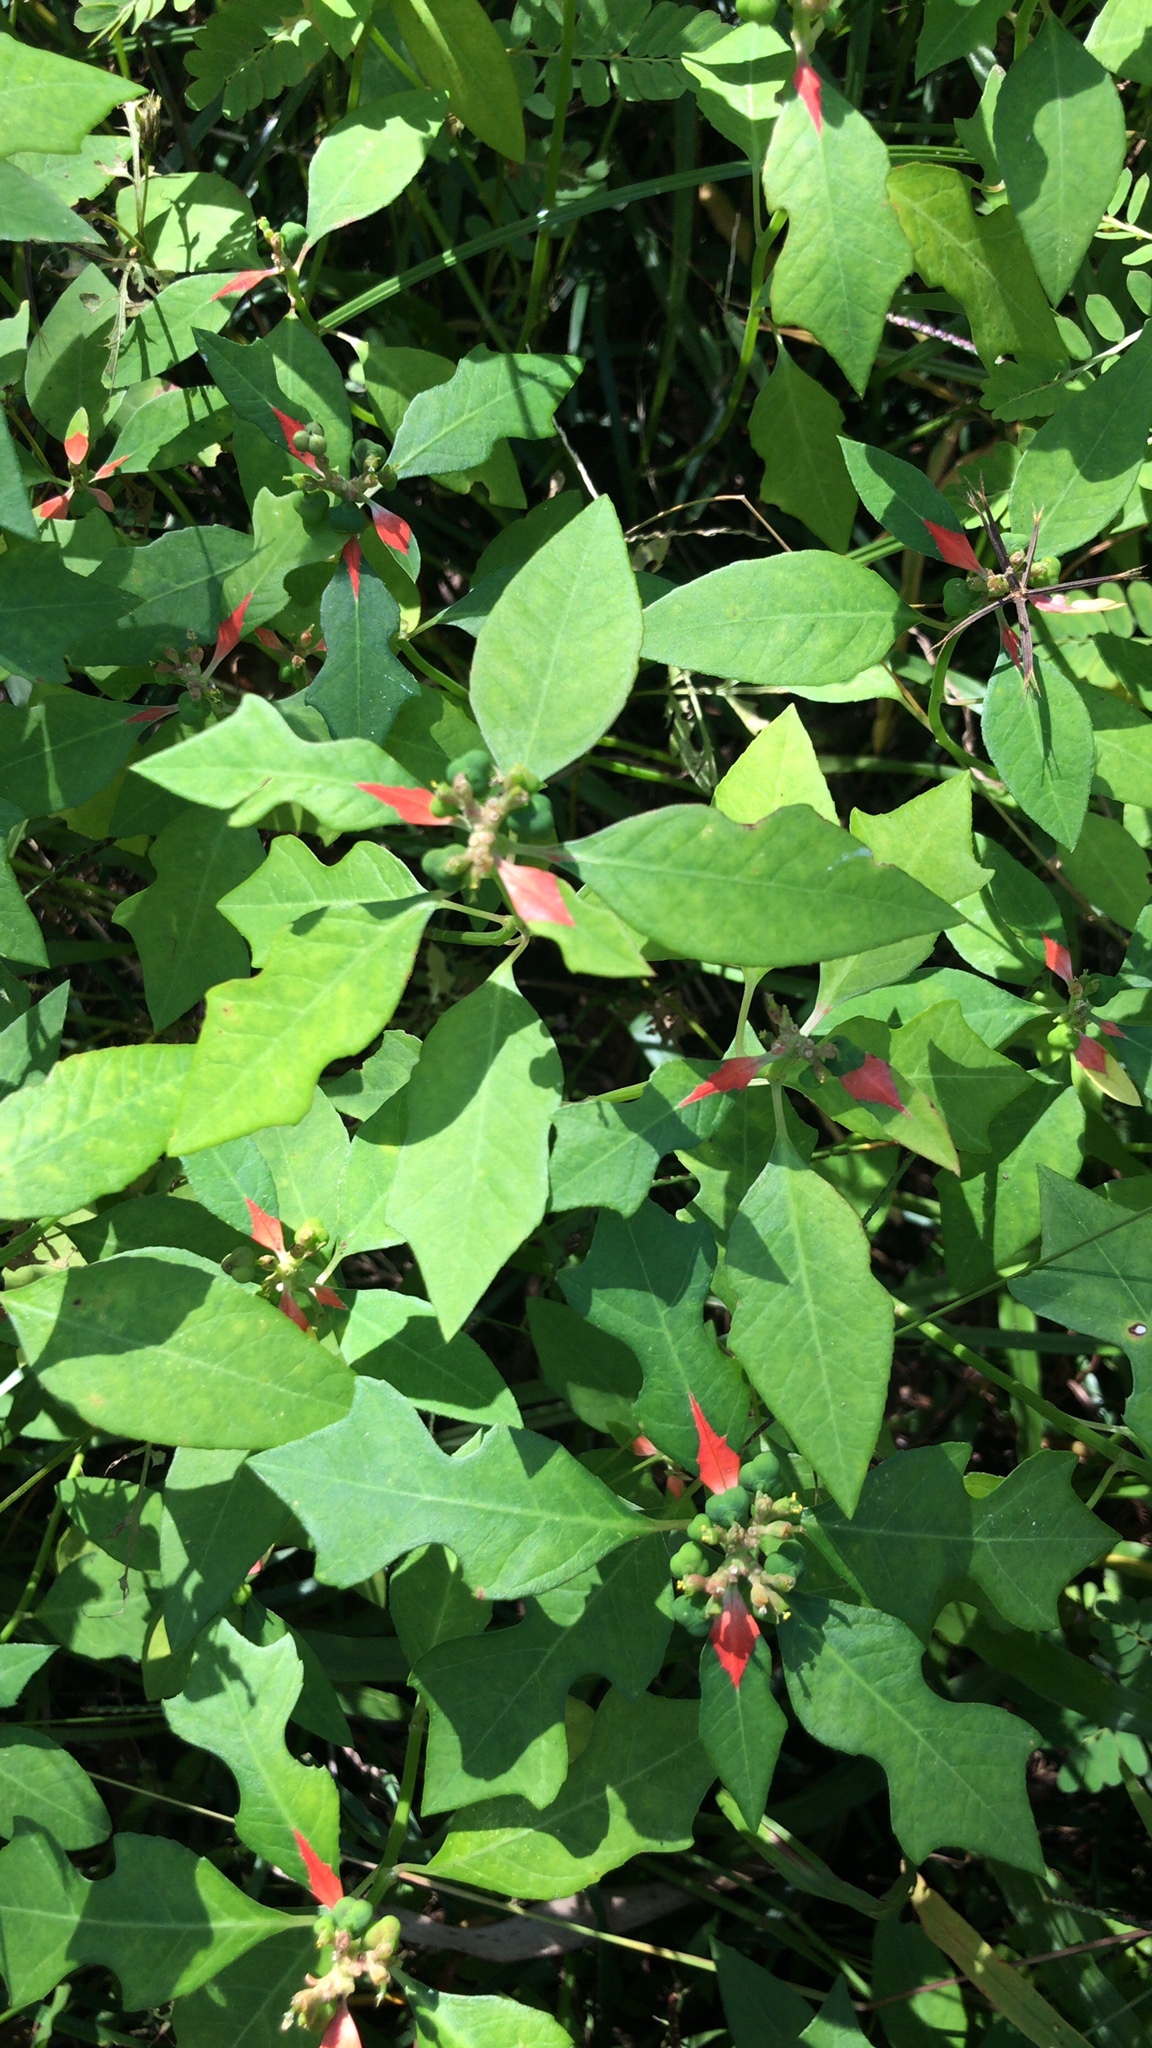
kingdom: Plantae
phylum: Tracheophyta
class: Magnoliopsida
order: Malpighiales
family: Euphorbiaceae
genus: Euphorbia
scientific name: Euphorbia heterophylla
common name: Mexican fireplant
